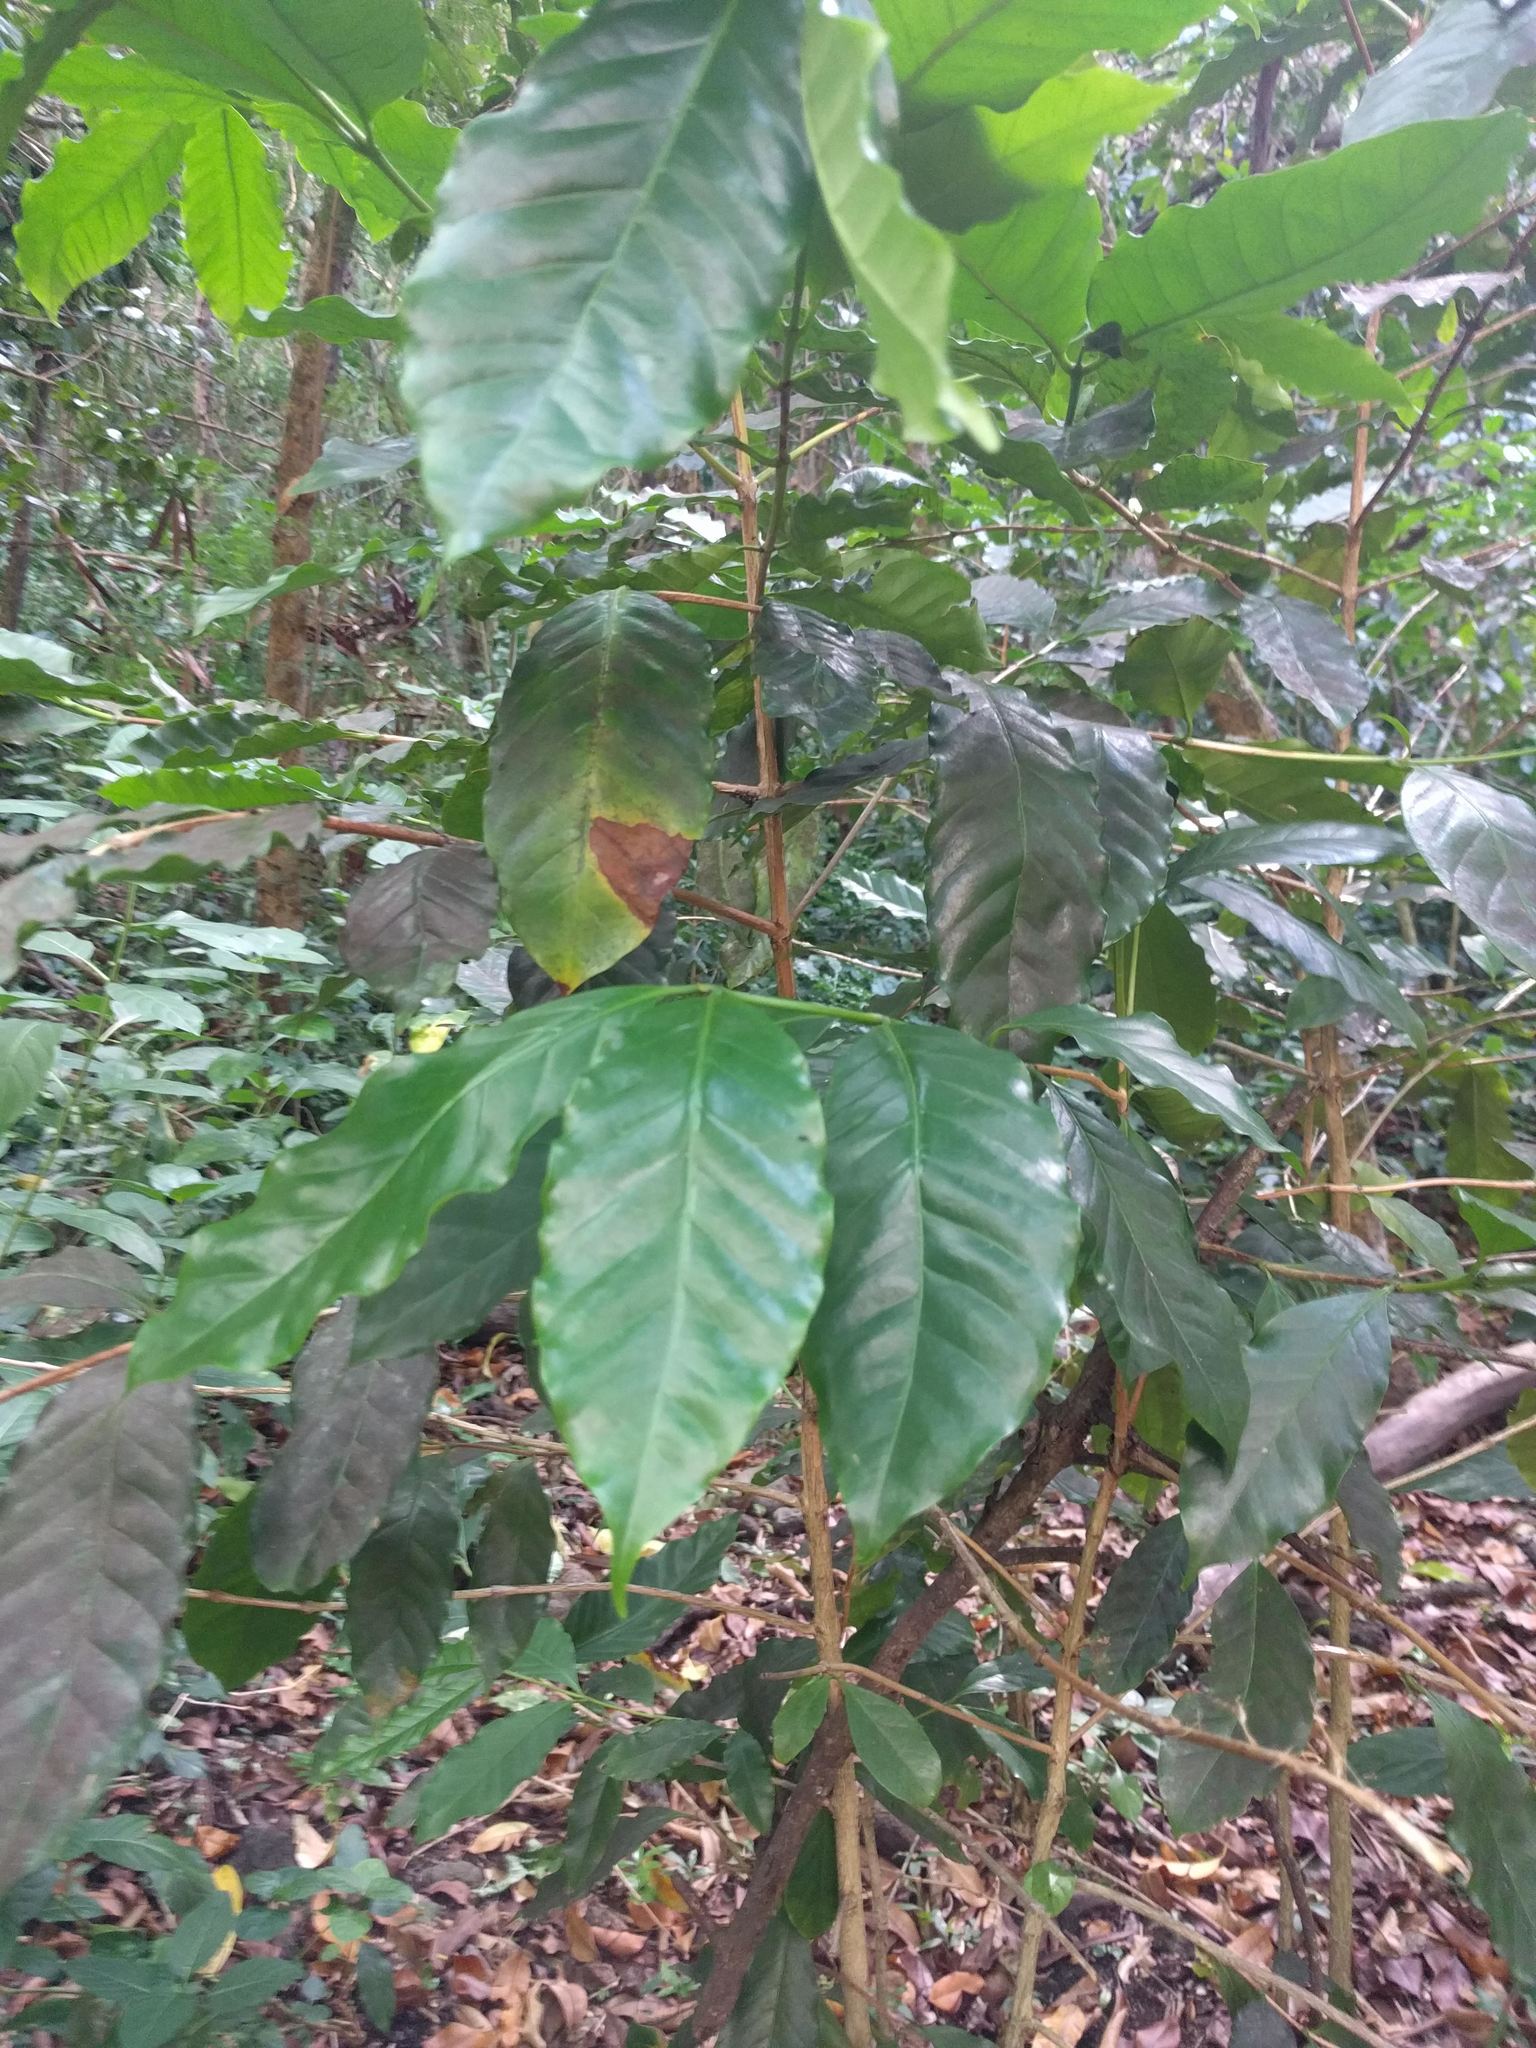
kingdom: Plantae
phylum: Tracheophyta
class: Magnoliopsida
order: Gentianales
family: Rubiaceae
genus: Coffea
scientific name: Coffea arabica
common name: Coffee
